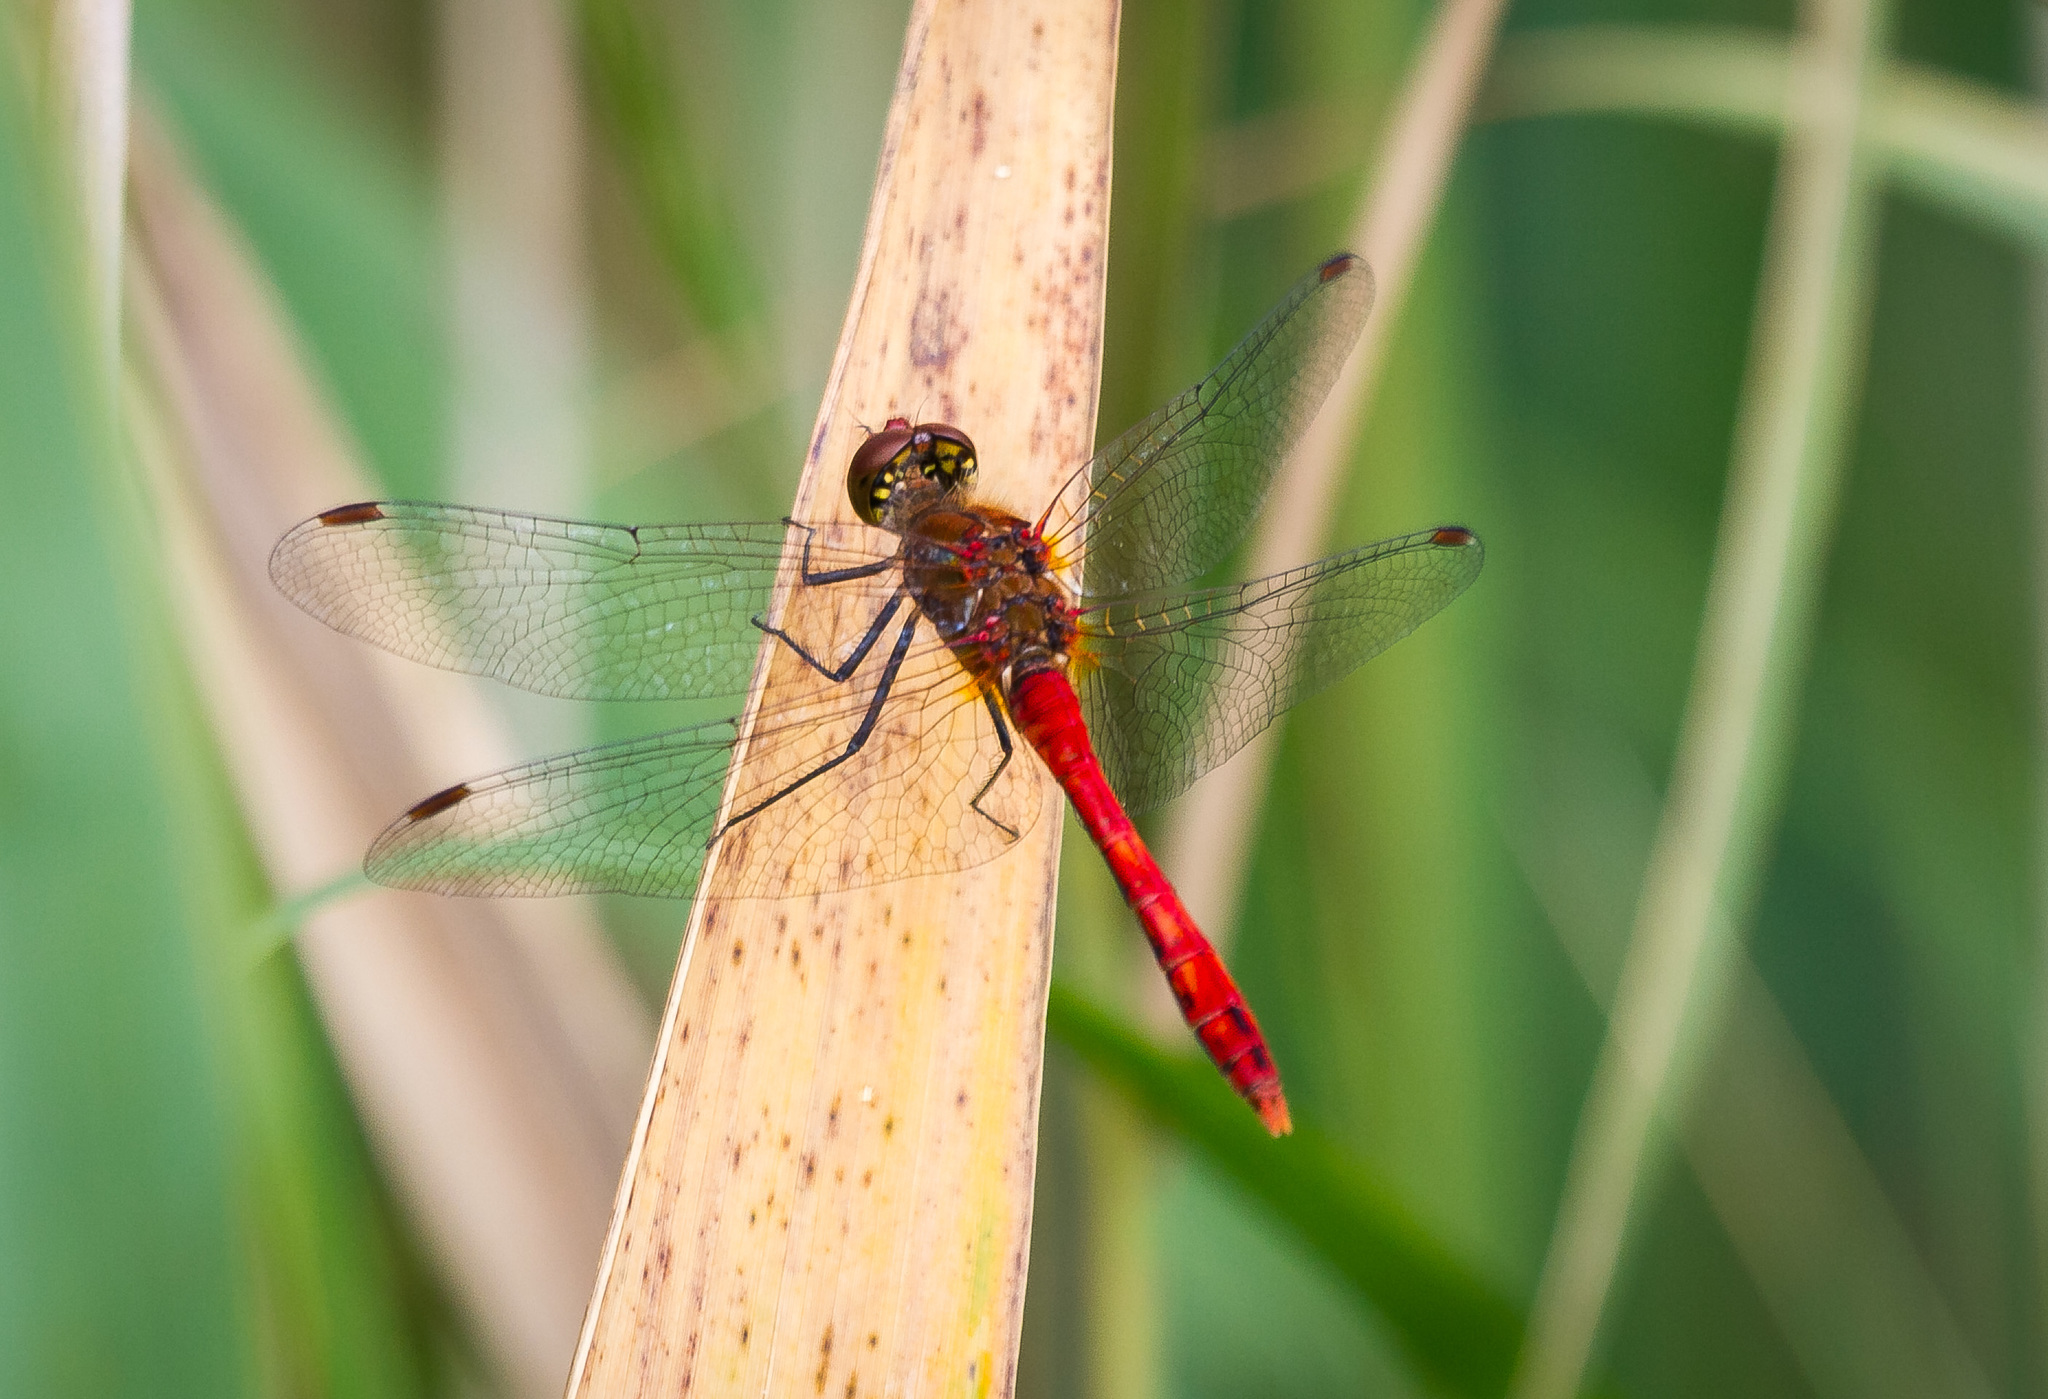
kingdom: Animalia
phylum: Arthropoda
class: Insecta
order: Odonata
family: Libellulidae
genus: Sympetrum
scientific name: Sympetrum sanguineum
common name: Ruddy darter
